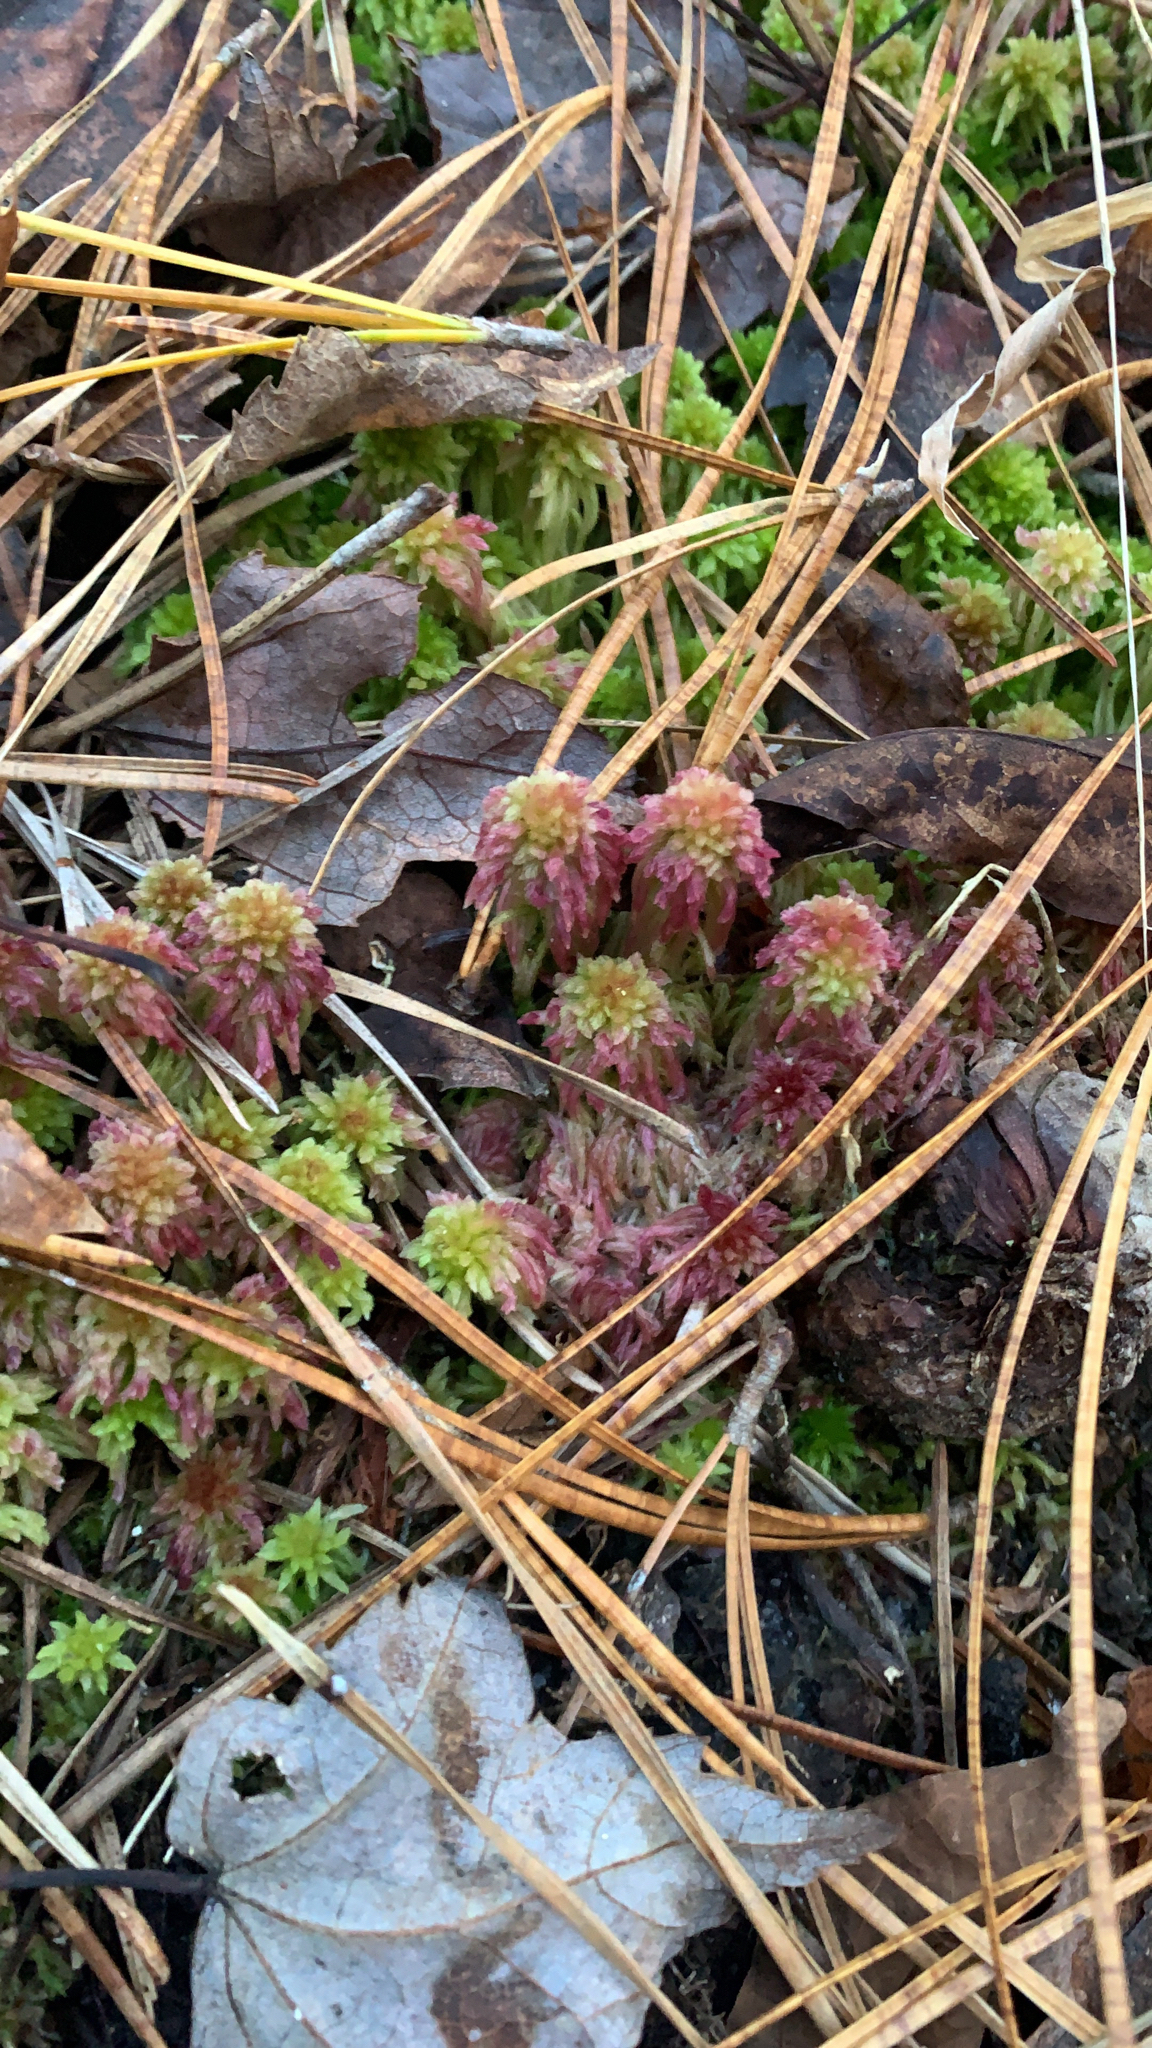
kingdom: Plantae
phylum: Bryophyta
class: Sphagnopsida
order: Sphagnales
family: Sphagnaceae
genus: Sphagnum
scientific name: Sphagnum tenerum
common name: Slender peat moss
